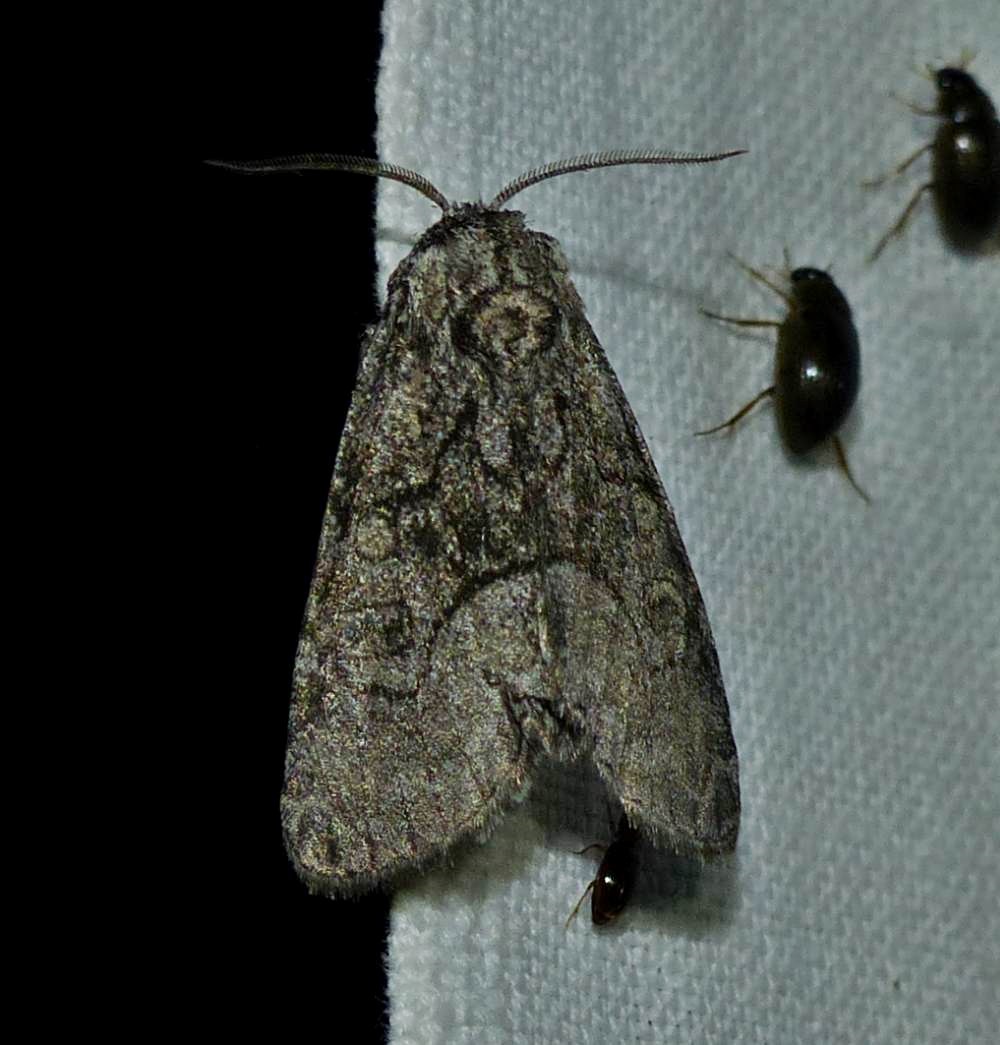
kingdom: Animalia
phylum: Arthropoda
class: Insecta
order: Lepidoptera
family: Noctuidae
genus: Raphia
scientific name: Raphia frater
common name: Brother
